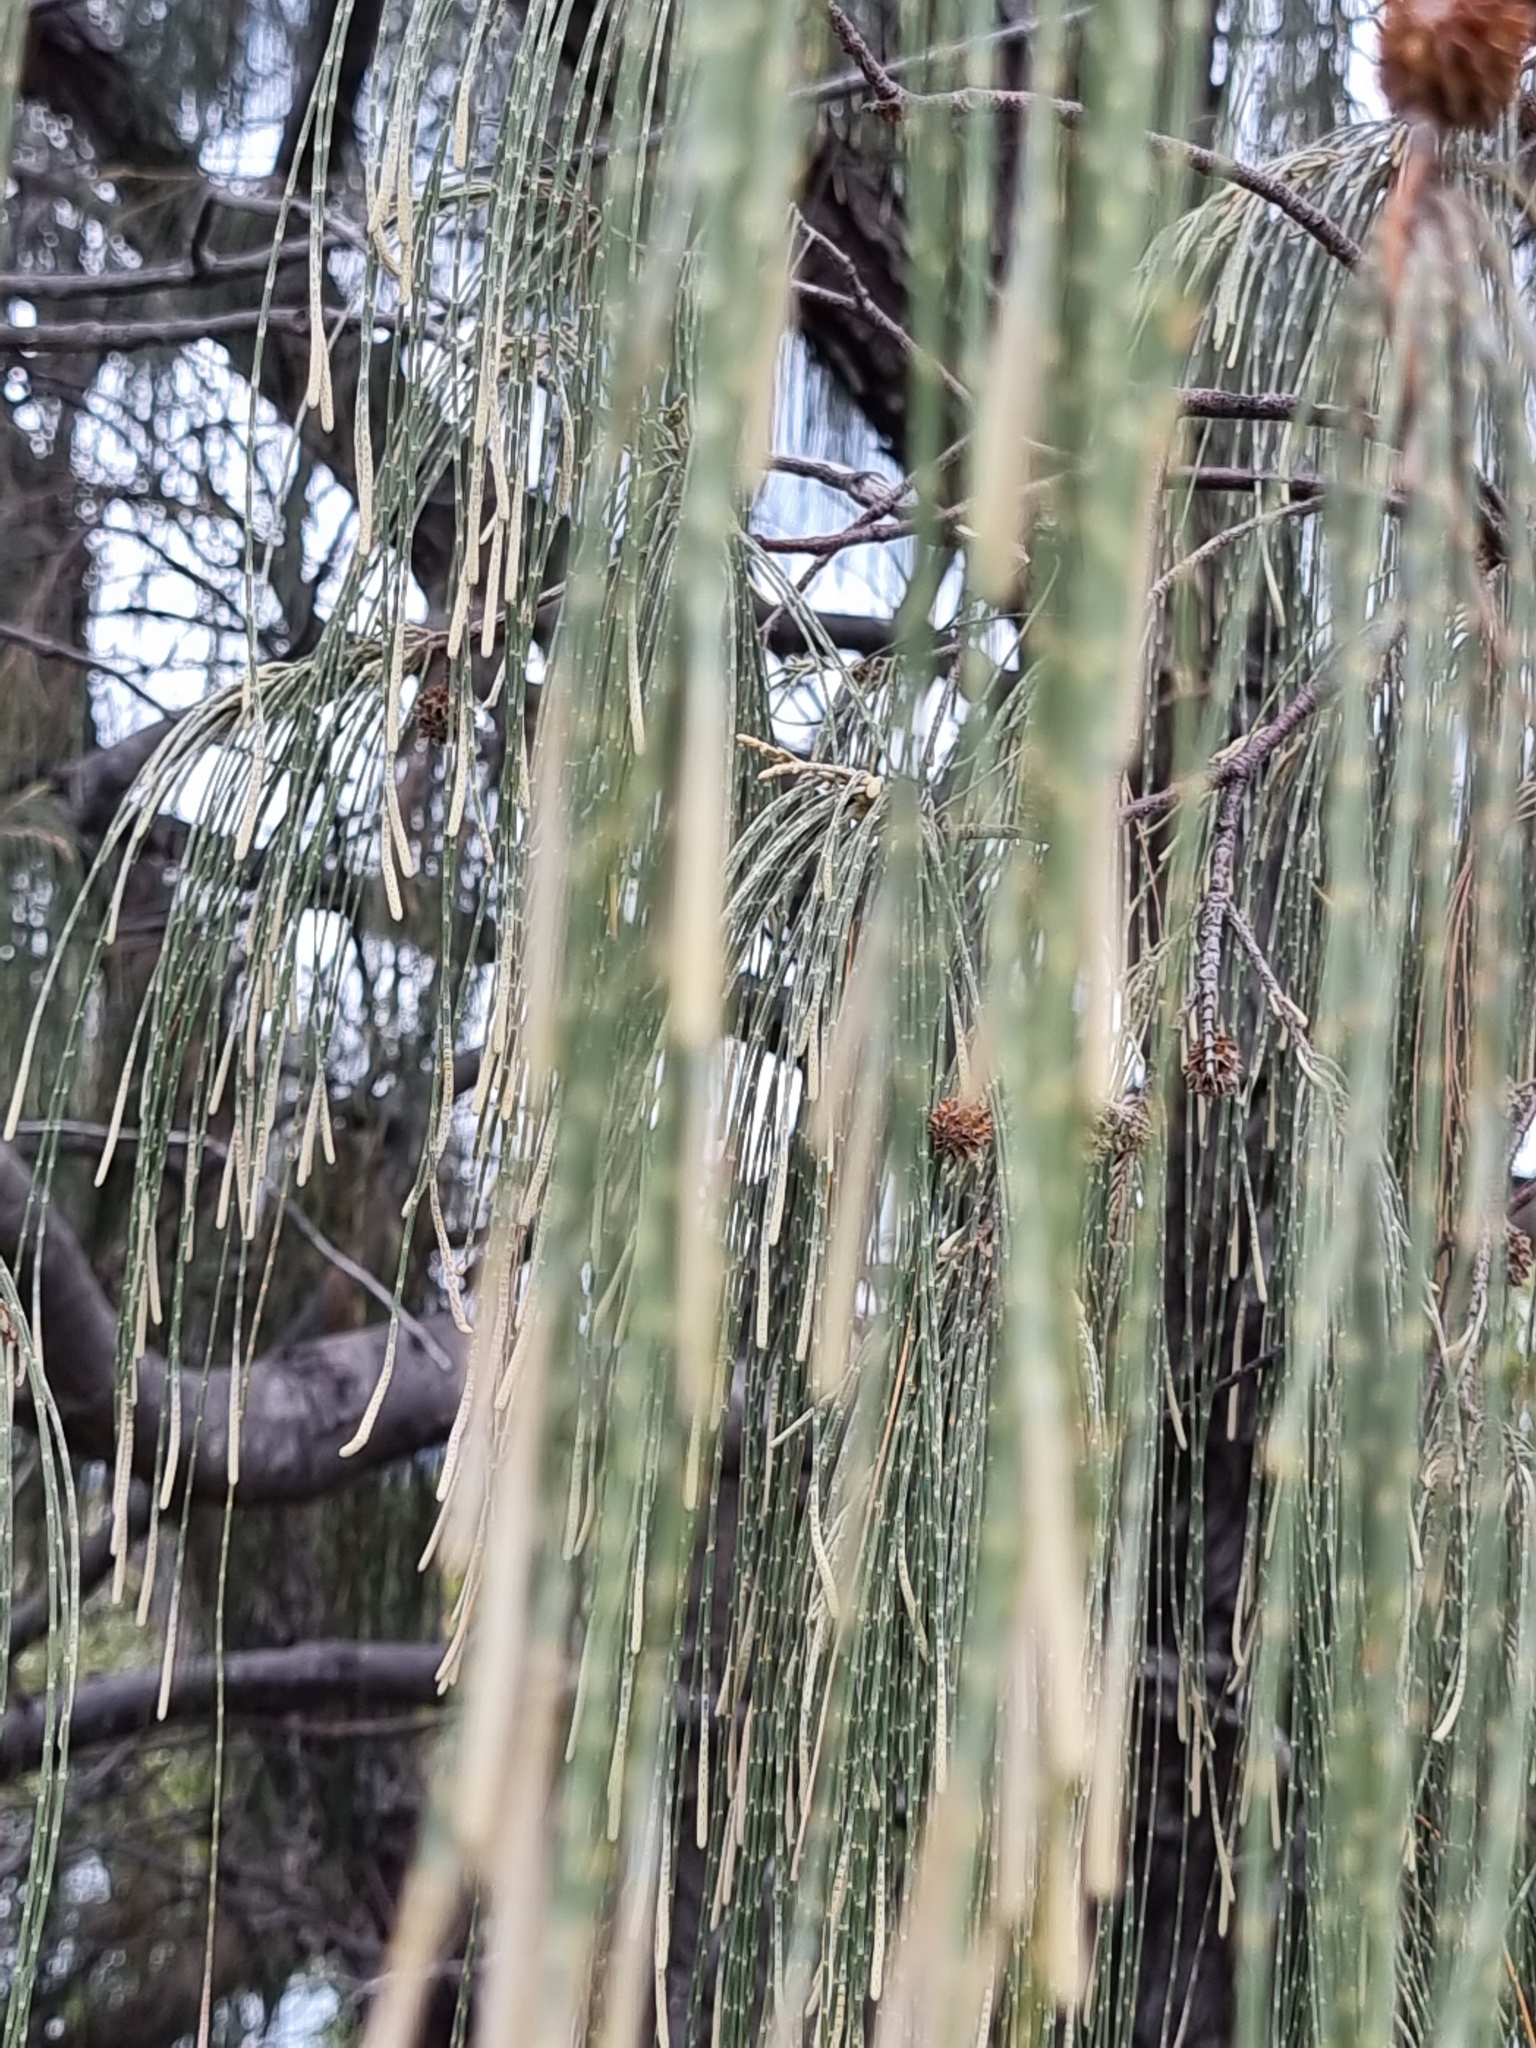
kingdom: Plantae
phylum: Tracheophyta
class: Magnoliopsida
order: Fagales
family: Casuarinaceae
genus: Casuarina
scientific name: Casuarina equisetifolia
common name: Beach sheoak
